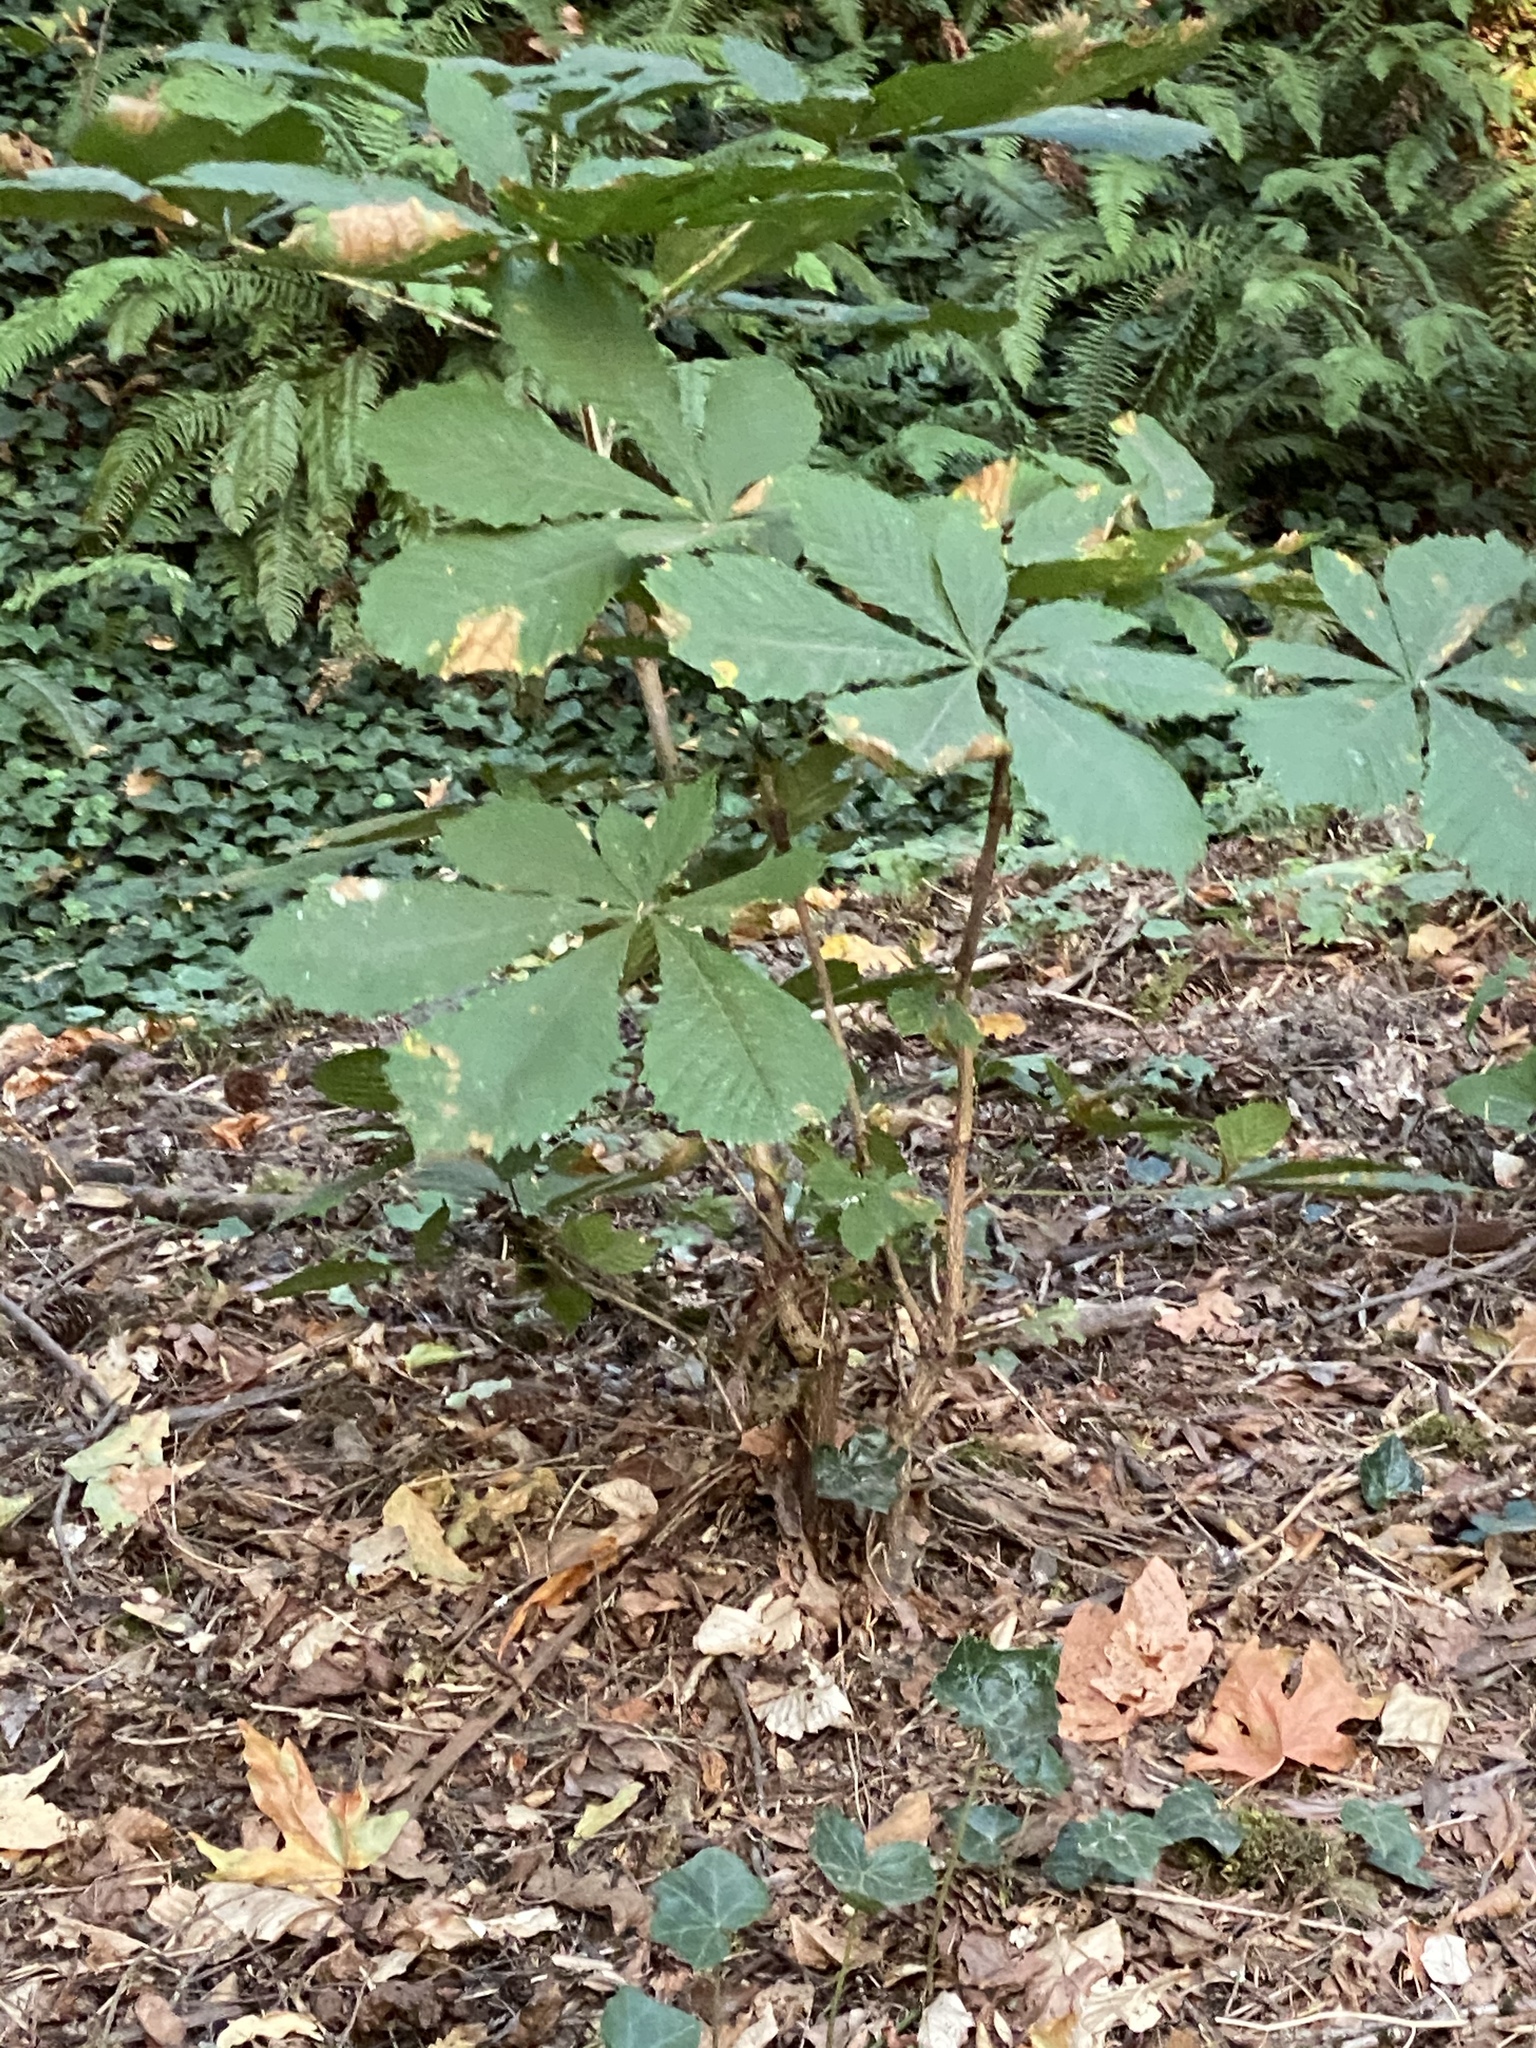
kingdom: Plantae
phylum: Tracheophyta
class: Magnoliopsida
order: Sapindales
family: Sapindaceae
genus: Aesculus
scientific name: Aesculus hippocastanum
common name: Horse-chestnut
